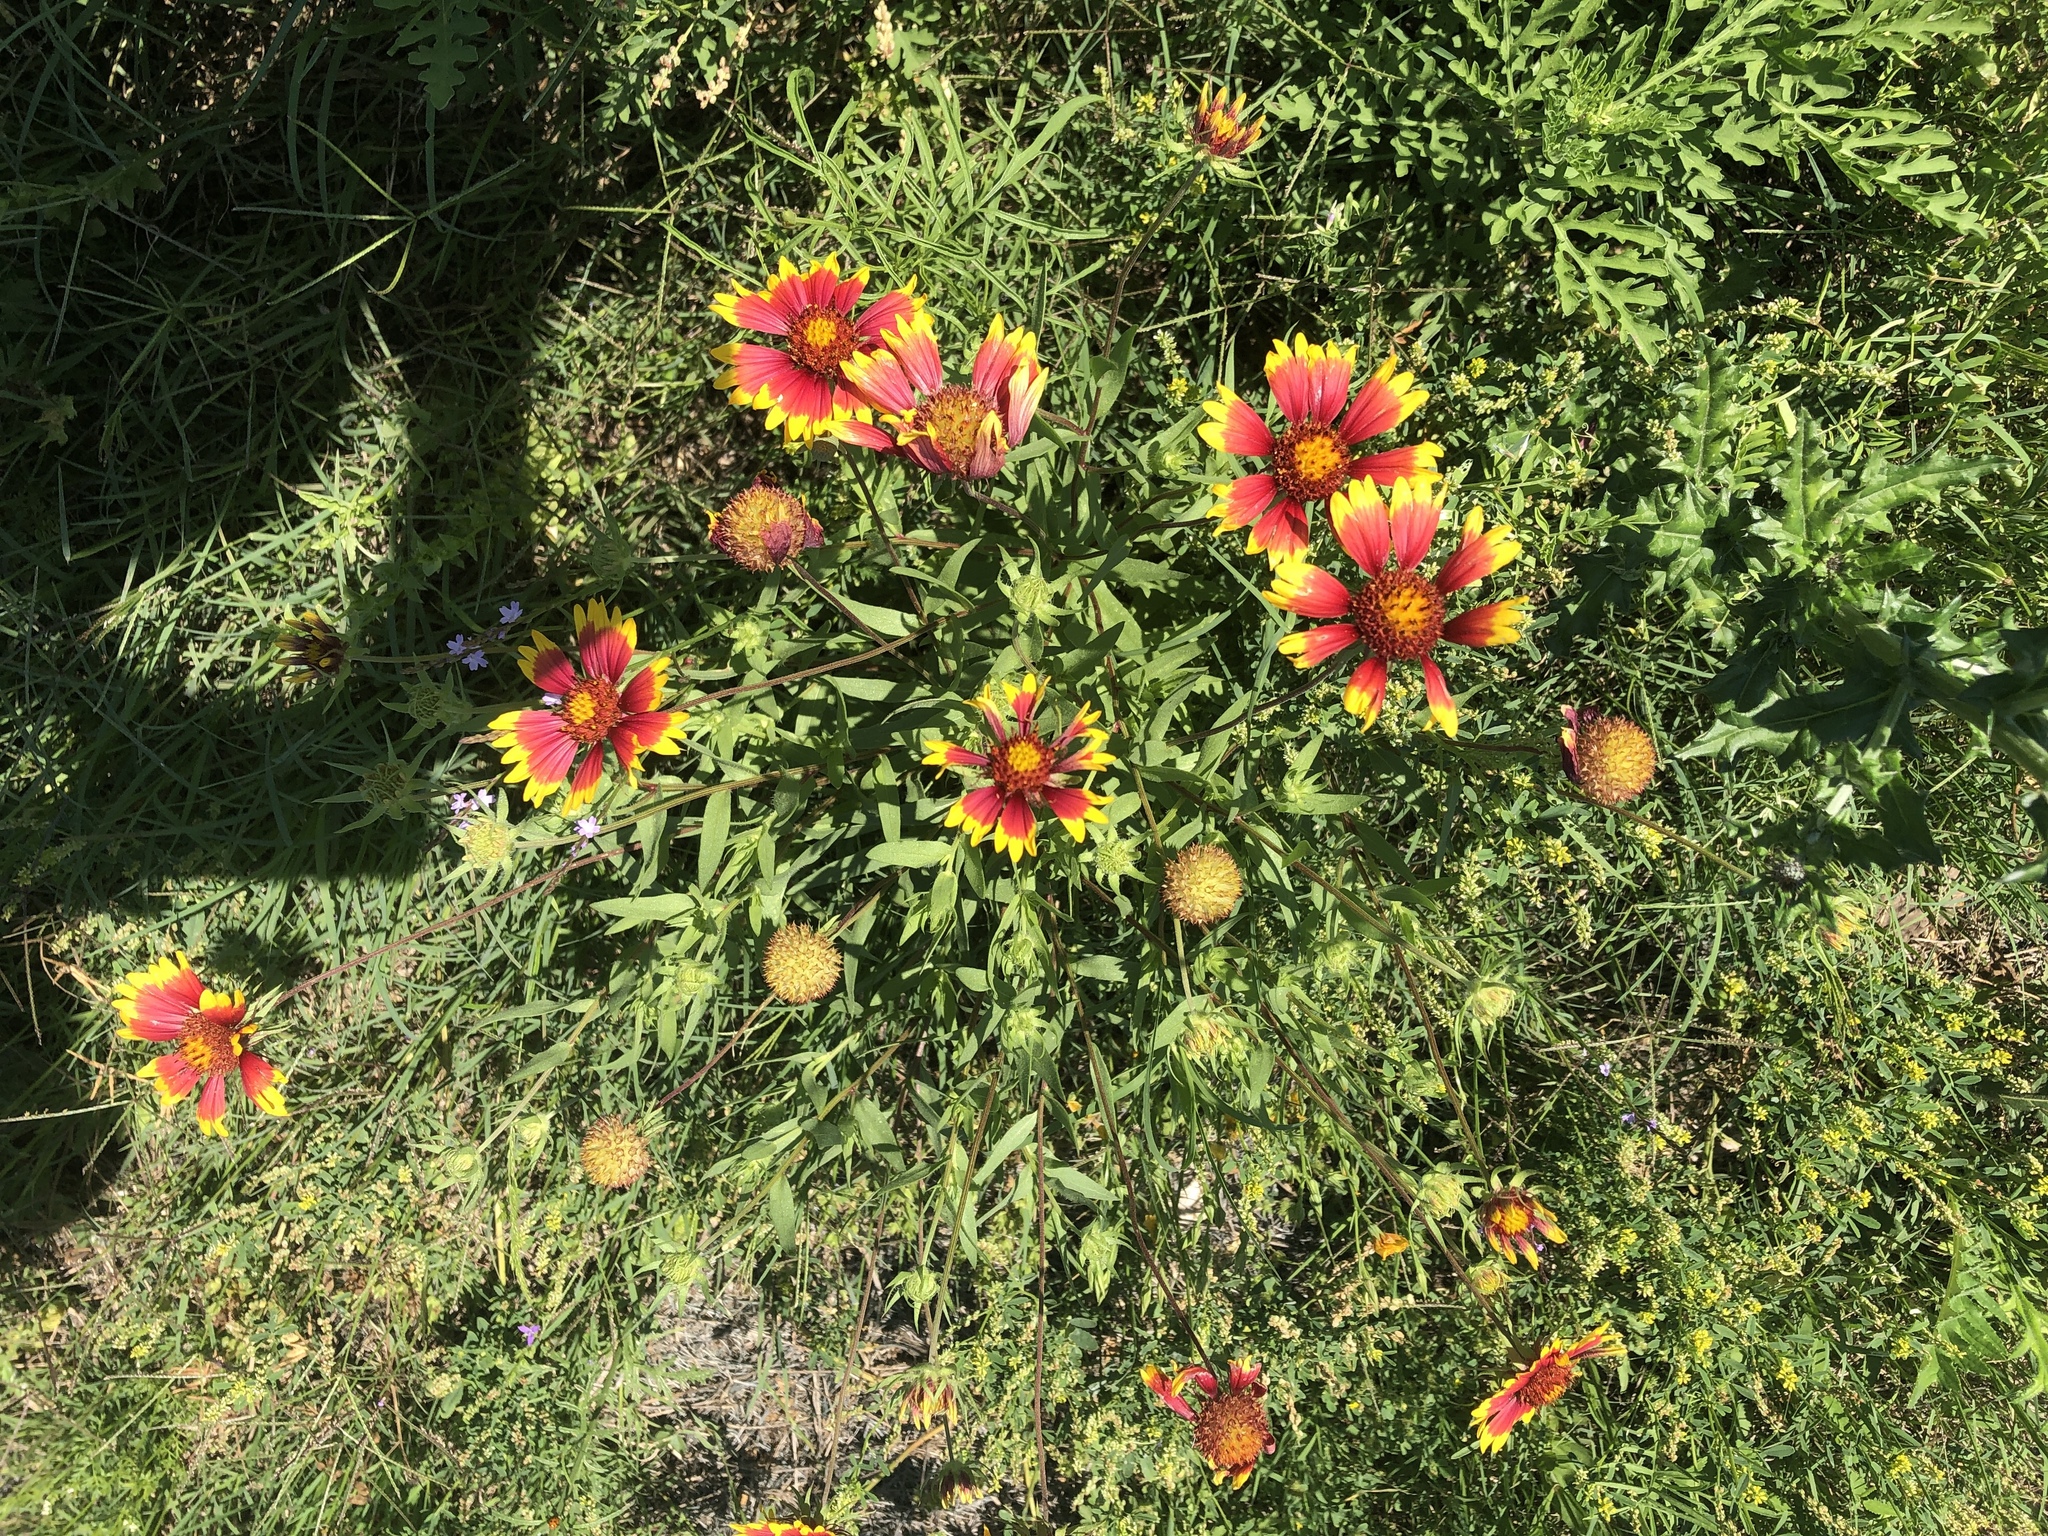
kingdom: Plantae
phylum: Tracheophyta
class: Magnoliopsida
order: Asterales
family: Asteraceae
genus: Gaillardia
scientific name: Gaillardia pulchella
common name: Firewheel
